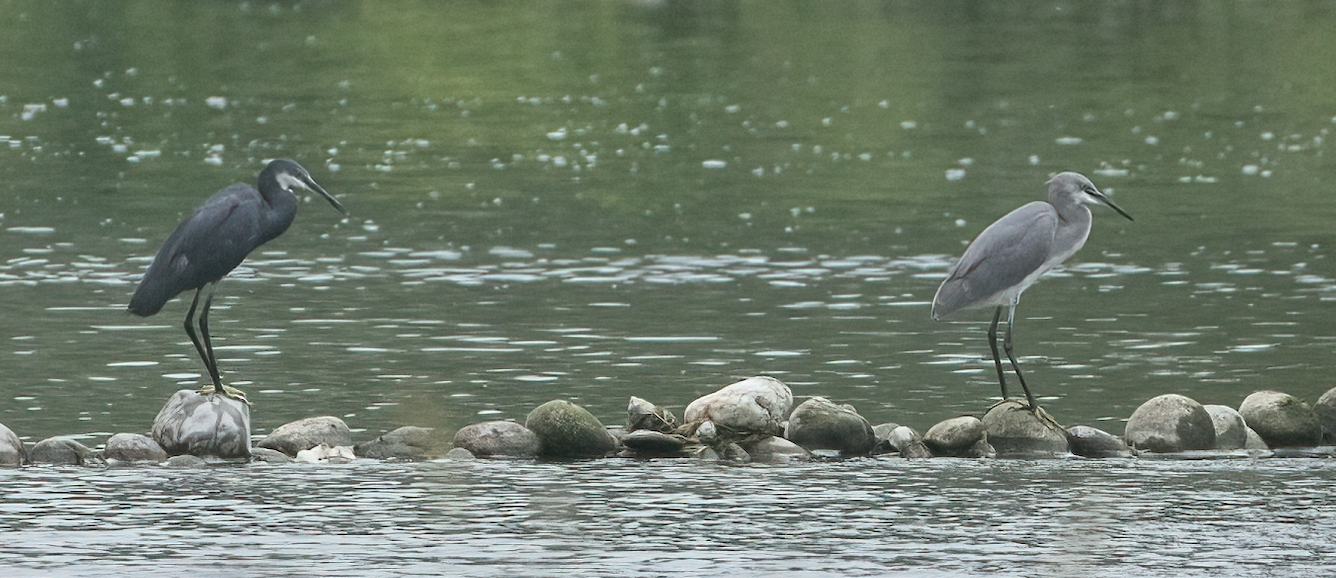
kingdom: Animalia
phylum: Chordata
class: Aves
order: Pelecaniformes
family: Ardeidae
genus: Egretta
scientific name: Egretta gularis
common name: Western reef-heron
